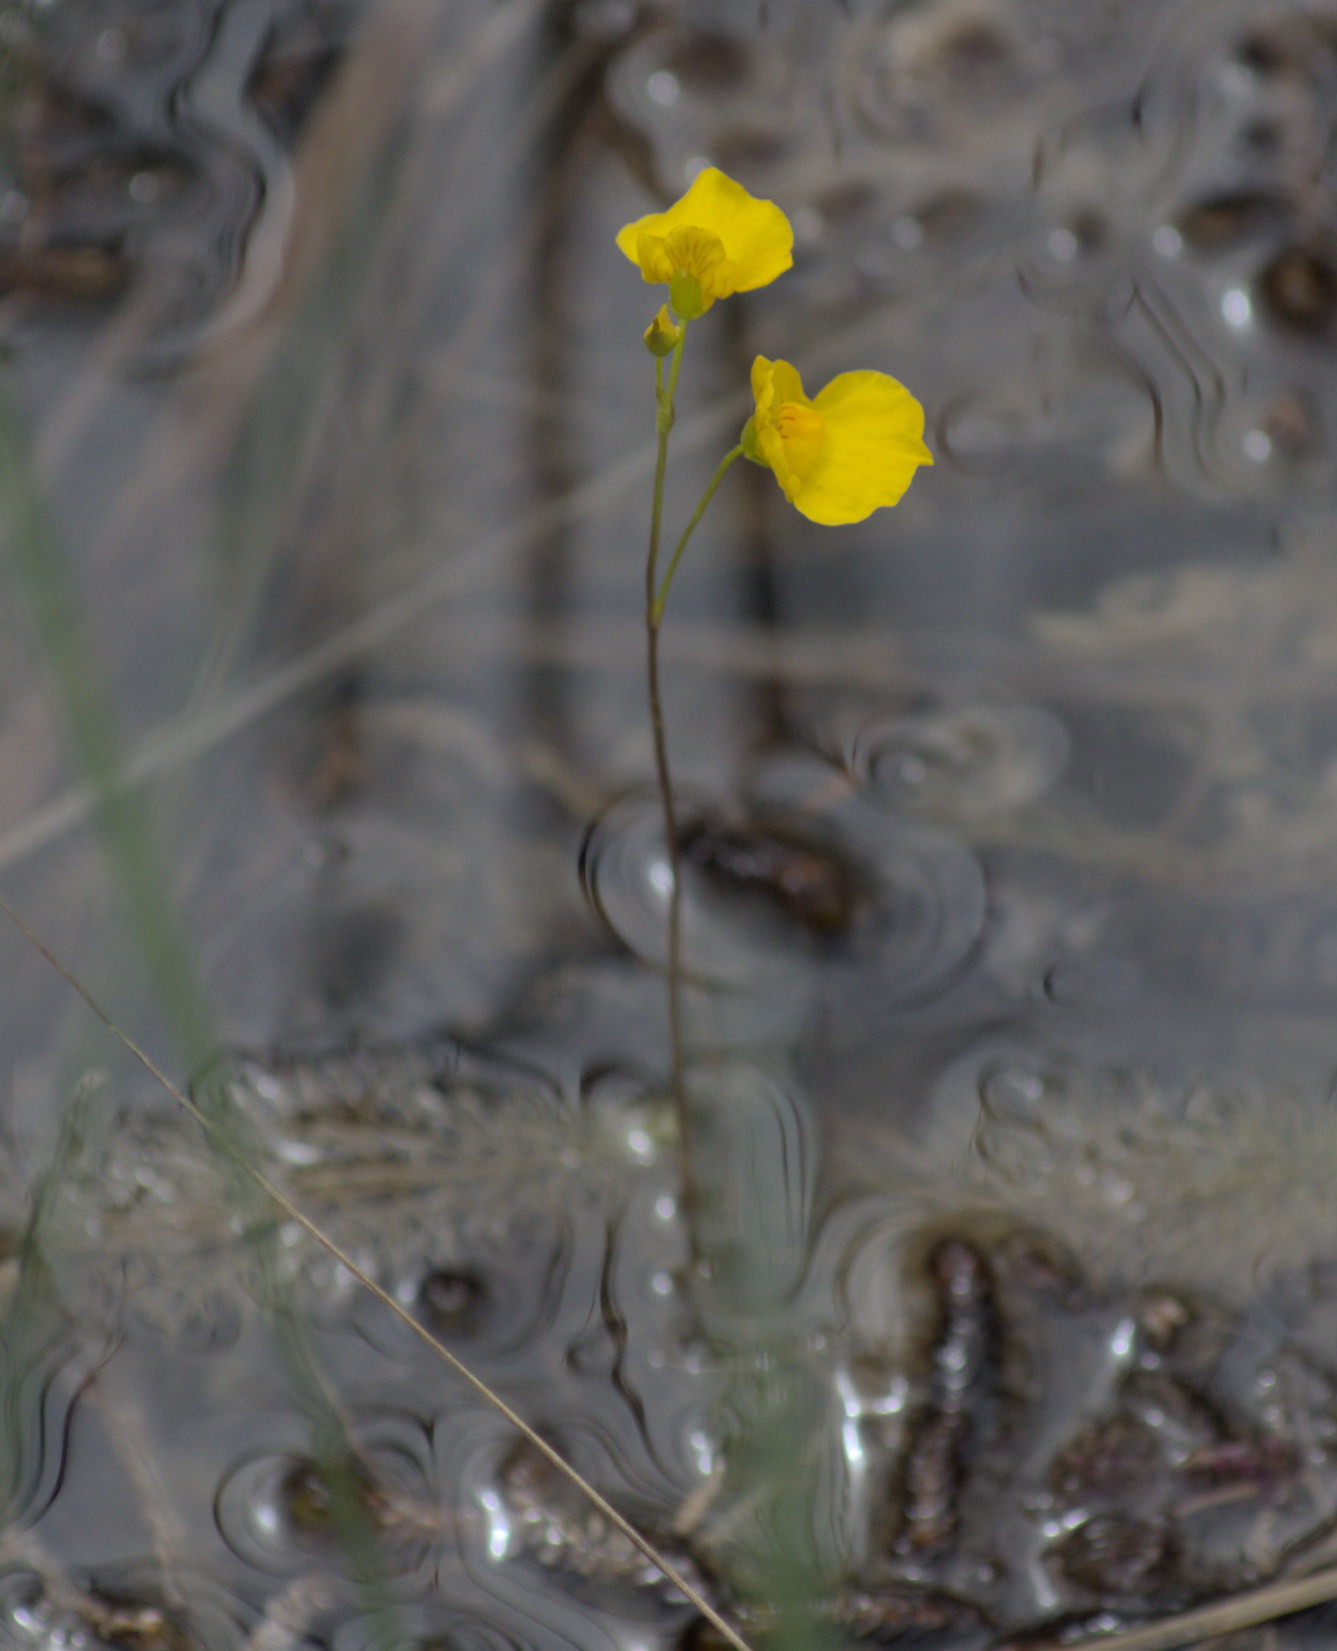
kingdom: Plantae
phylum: Tracheophyta
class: Magnoliopsida
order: Lamiales
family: Lentibulariaceae
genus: Utricularia
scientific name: Utricularia intermedia
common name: Intermediate bladderwort
